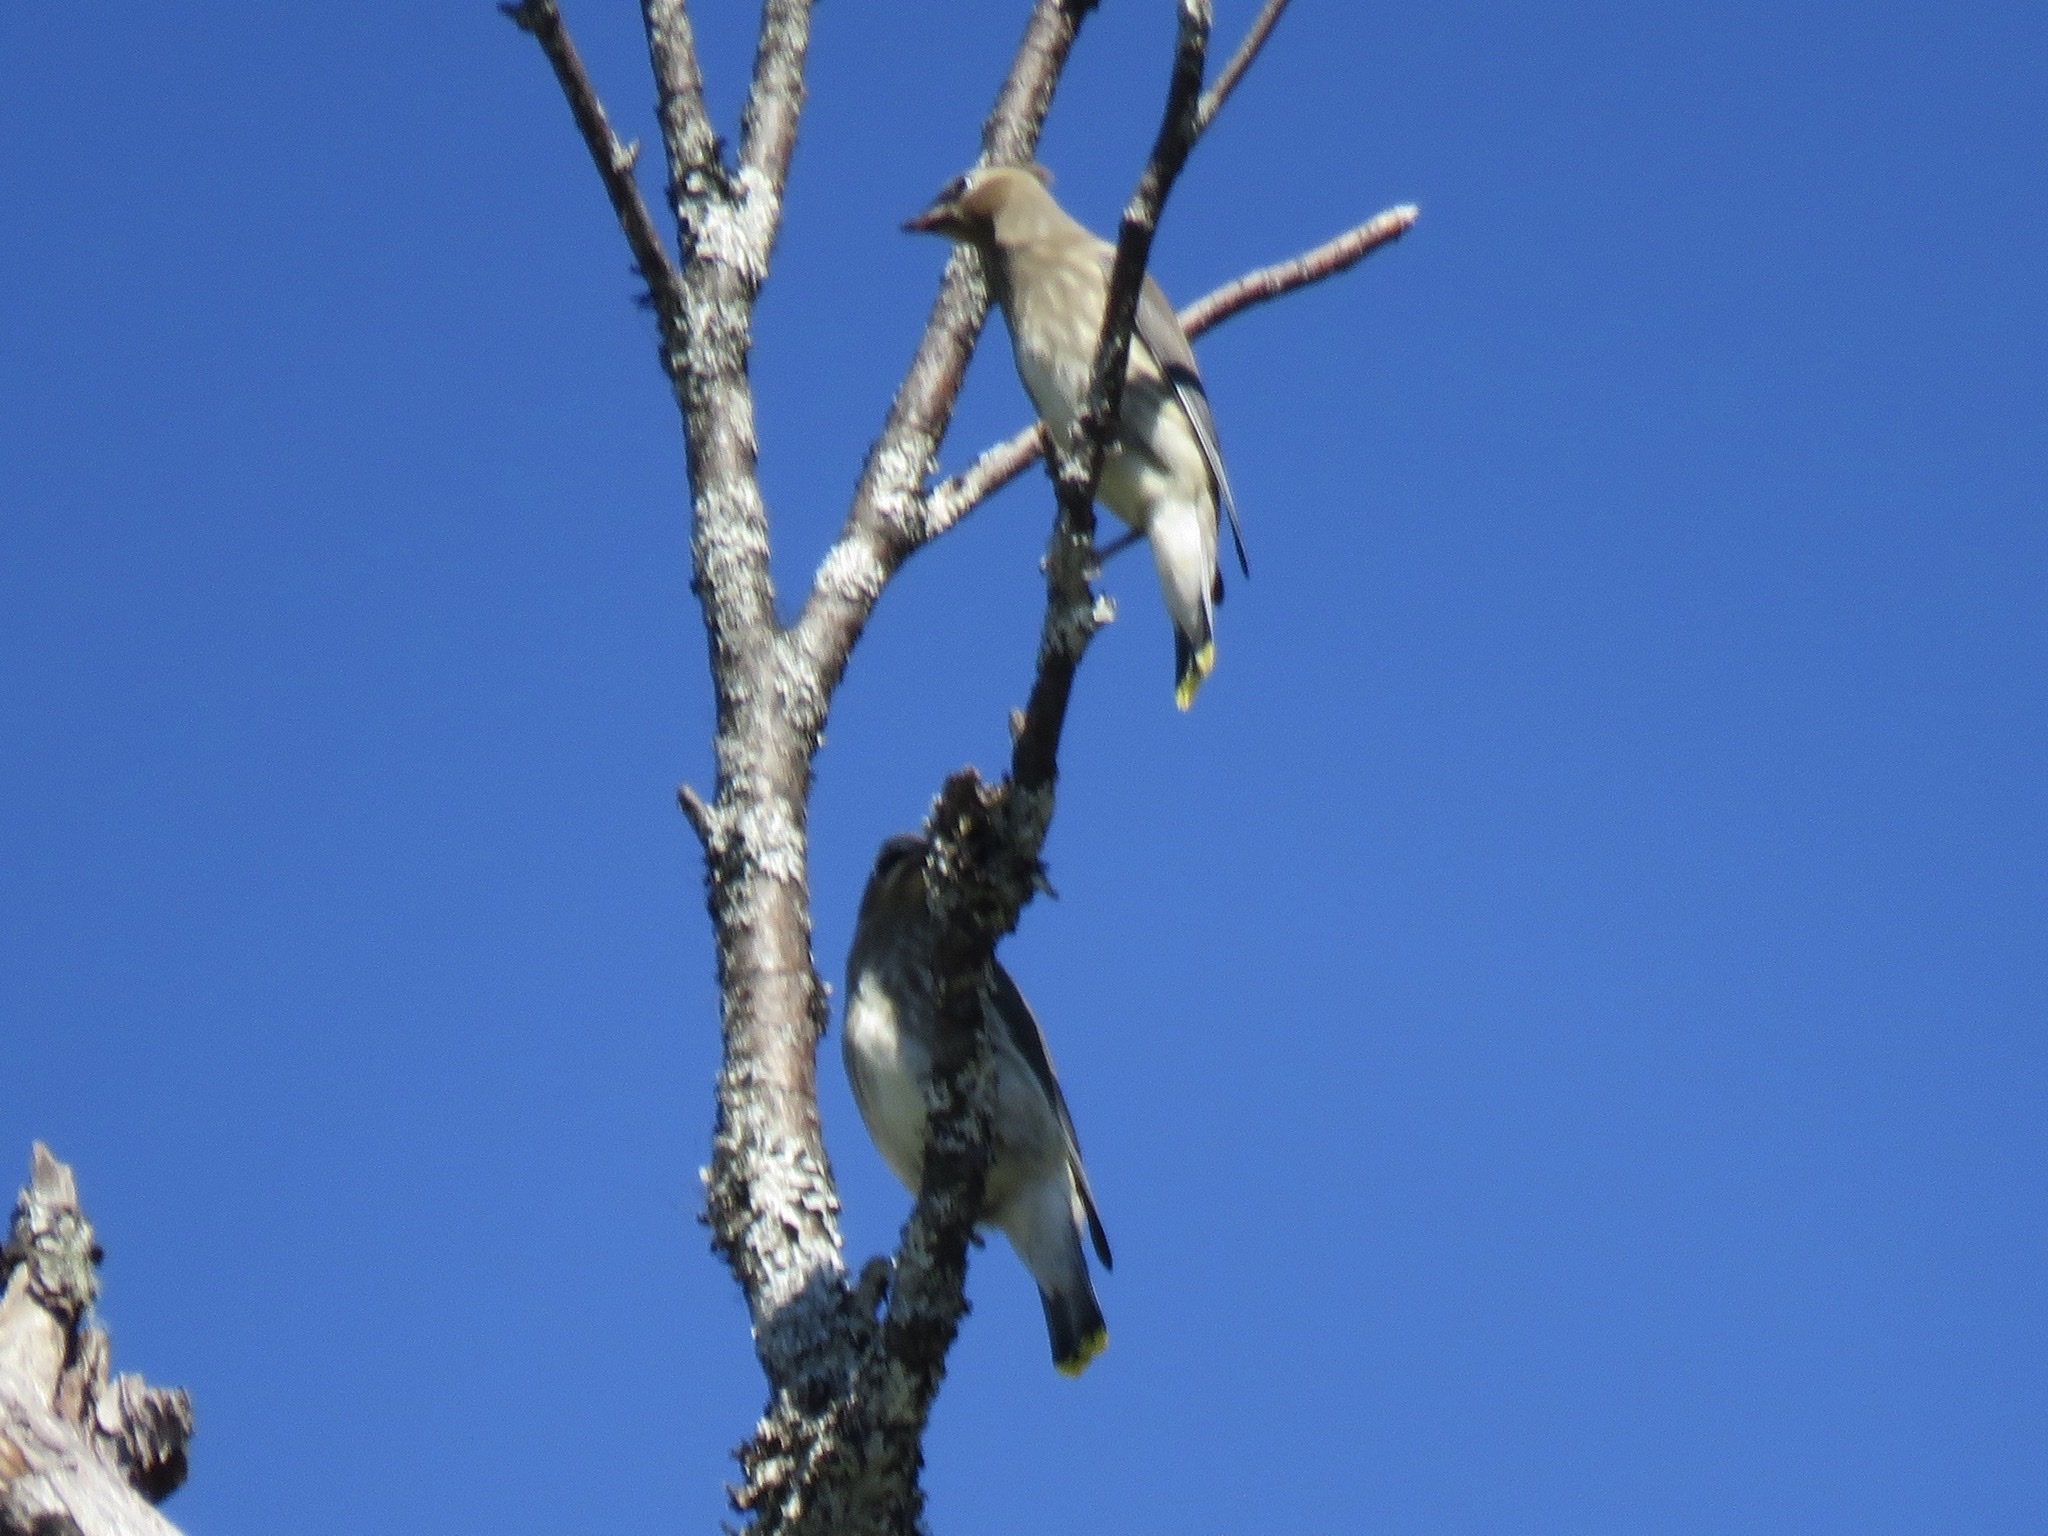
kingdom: Animalia
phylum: Chordata
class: Aves
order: Passeriformes
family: Bombycillidae
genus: Bombycilla
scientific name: Bombycilla cedrorum
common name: Cedar waxwing
